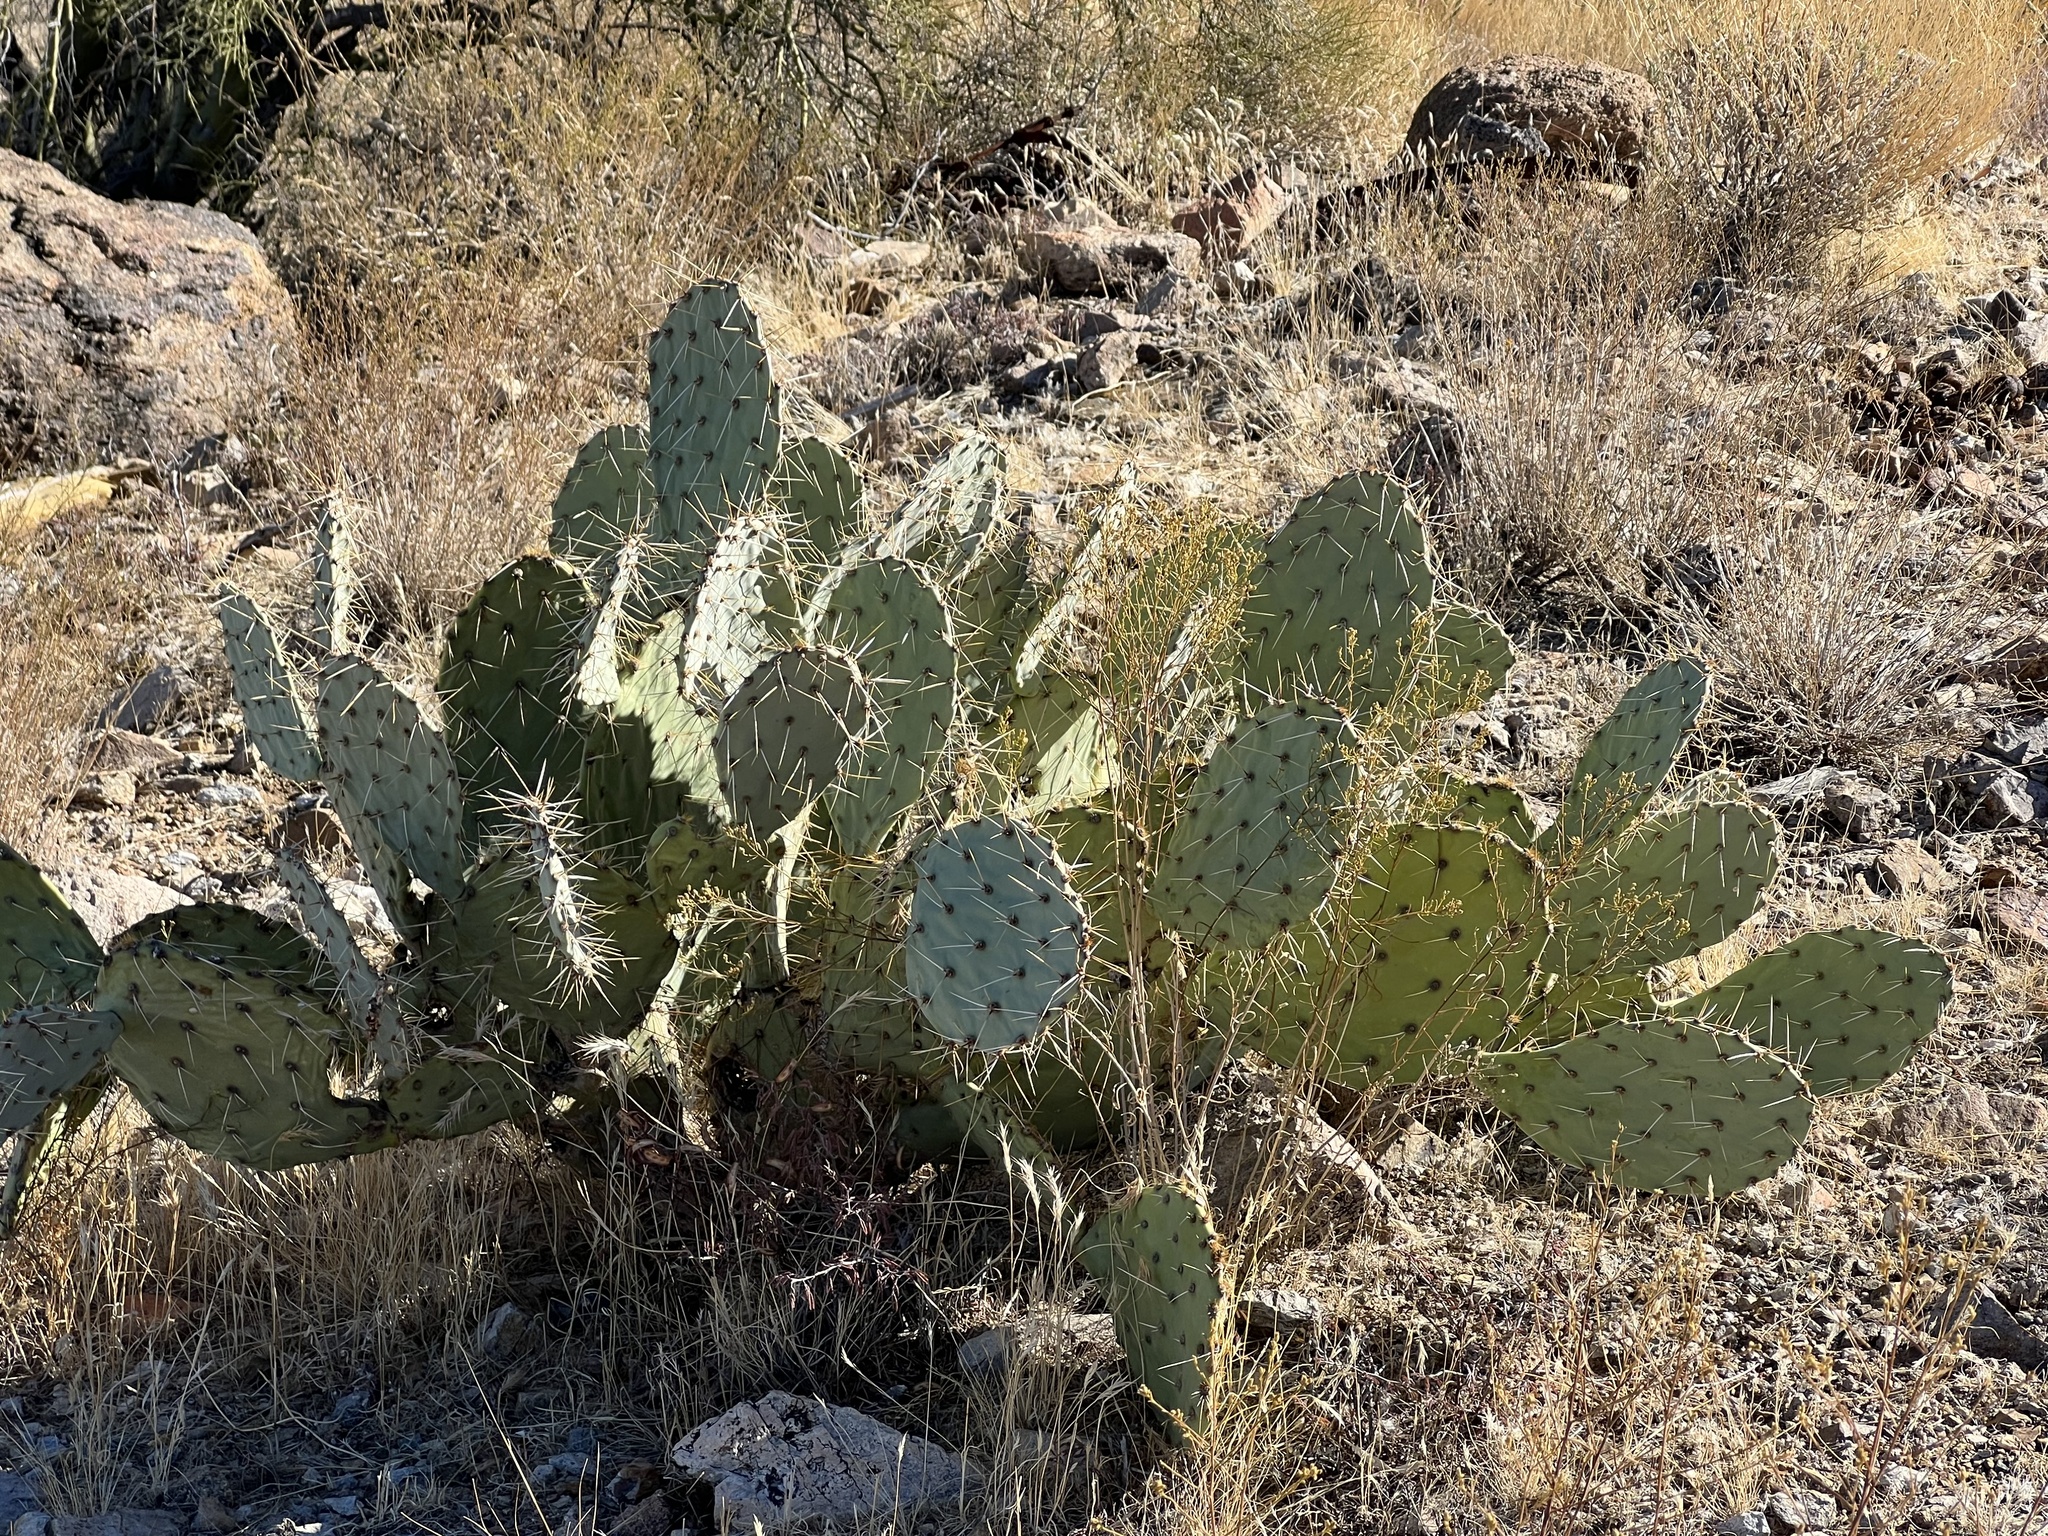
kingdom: Plantae
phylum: Tracheophyta
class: Magnoliopsida
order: Caryophyllales
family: Cactaceae
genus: Opuntia
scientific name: Opuntia engelmannii
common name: Cactus-apple
